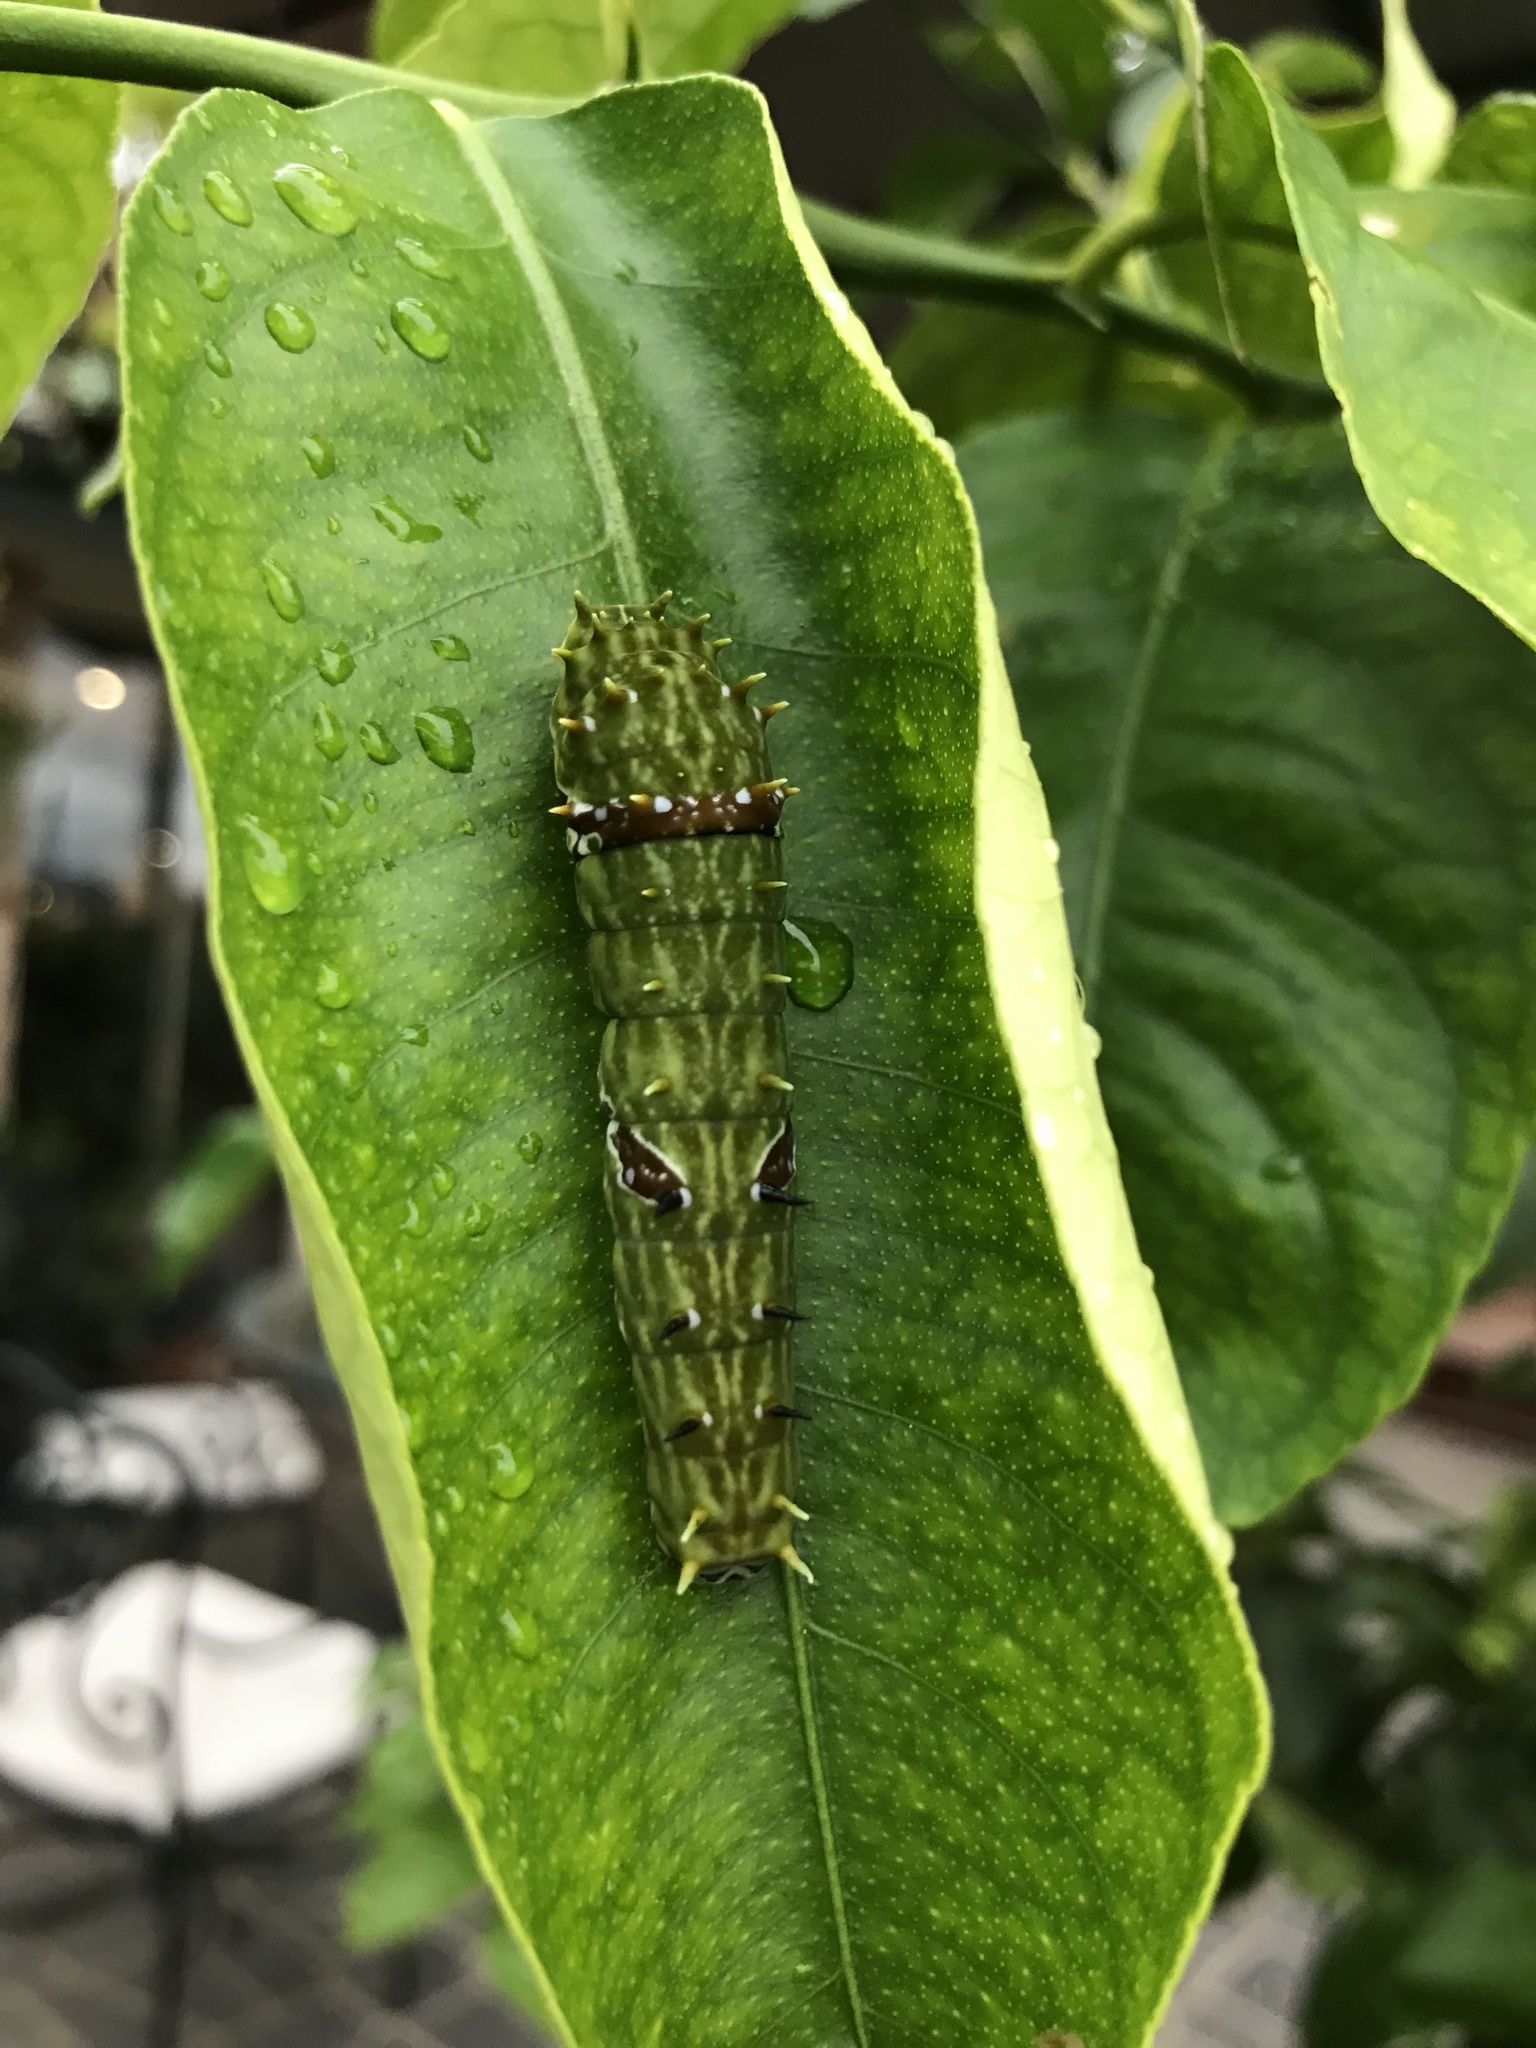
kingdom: Animalia
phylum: Arthropoda
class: Insecta
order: Lepidoptera
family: Papilionidae
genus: Papilio
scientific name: Papilio aegeus
